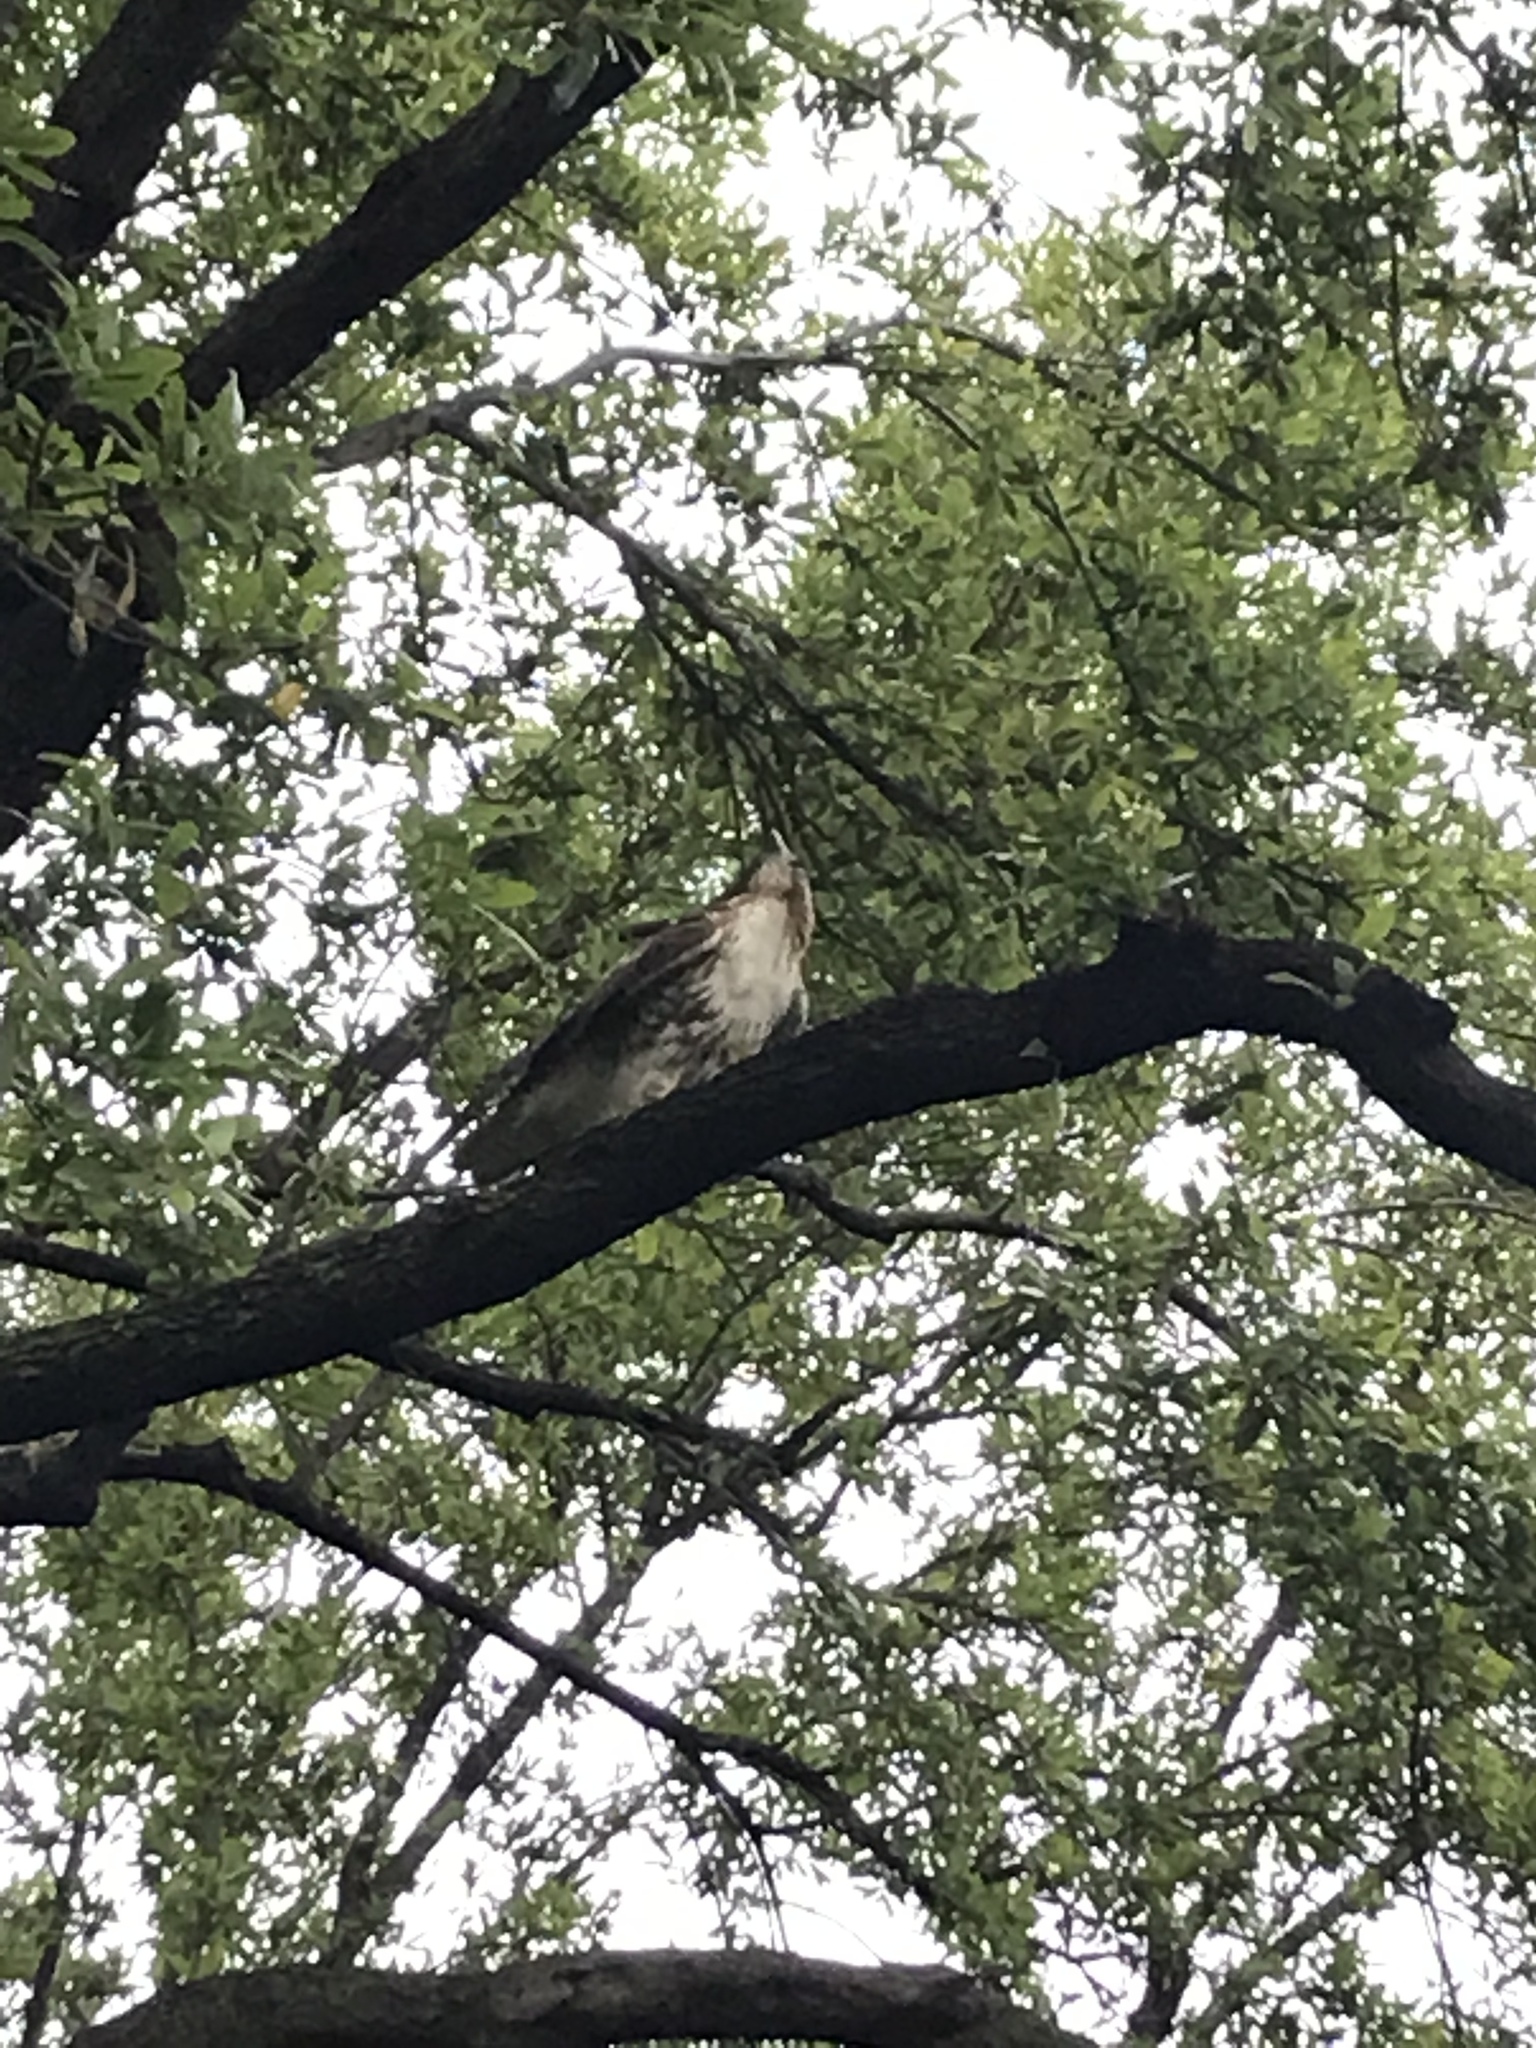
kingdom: Animalia
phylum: Chordata
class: Aves
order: Accipitriformes
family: Accipitridae
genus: Buteo
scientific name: Buteo jamaicensis
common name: Red-tailed hawk
